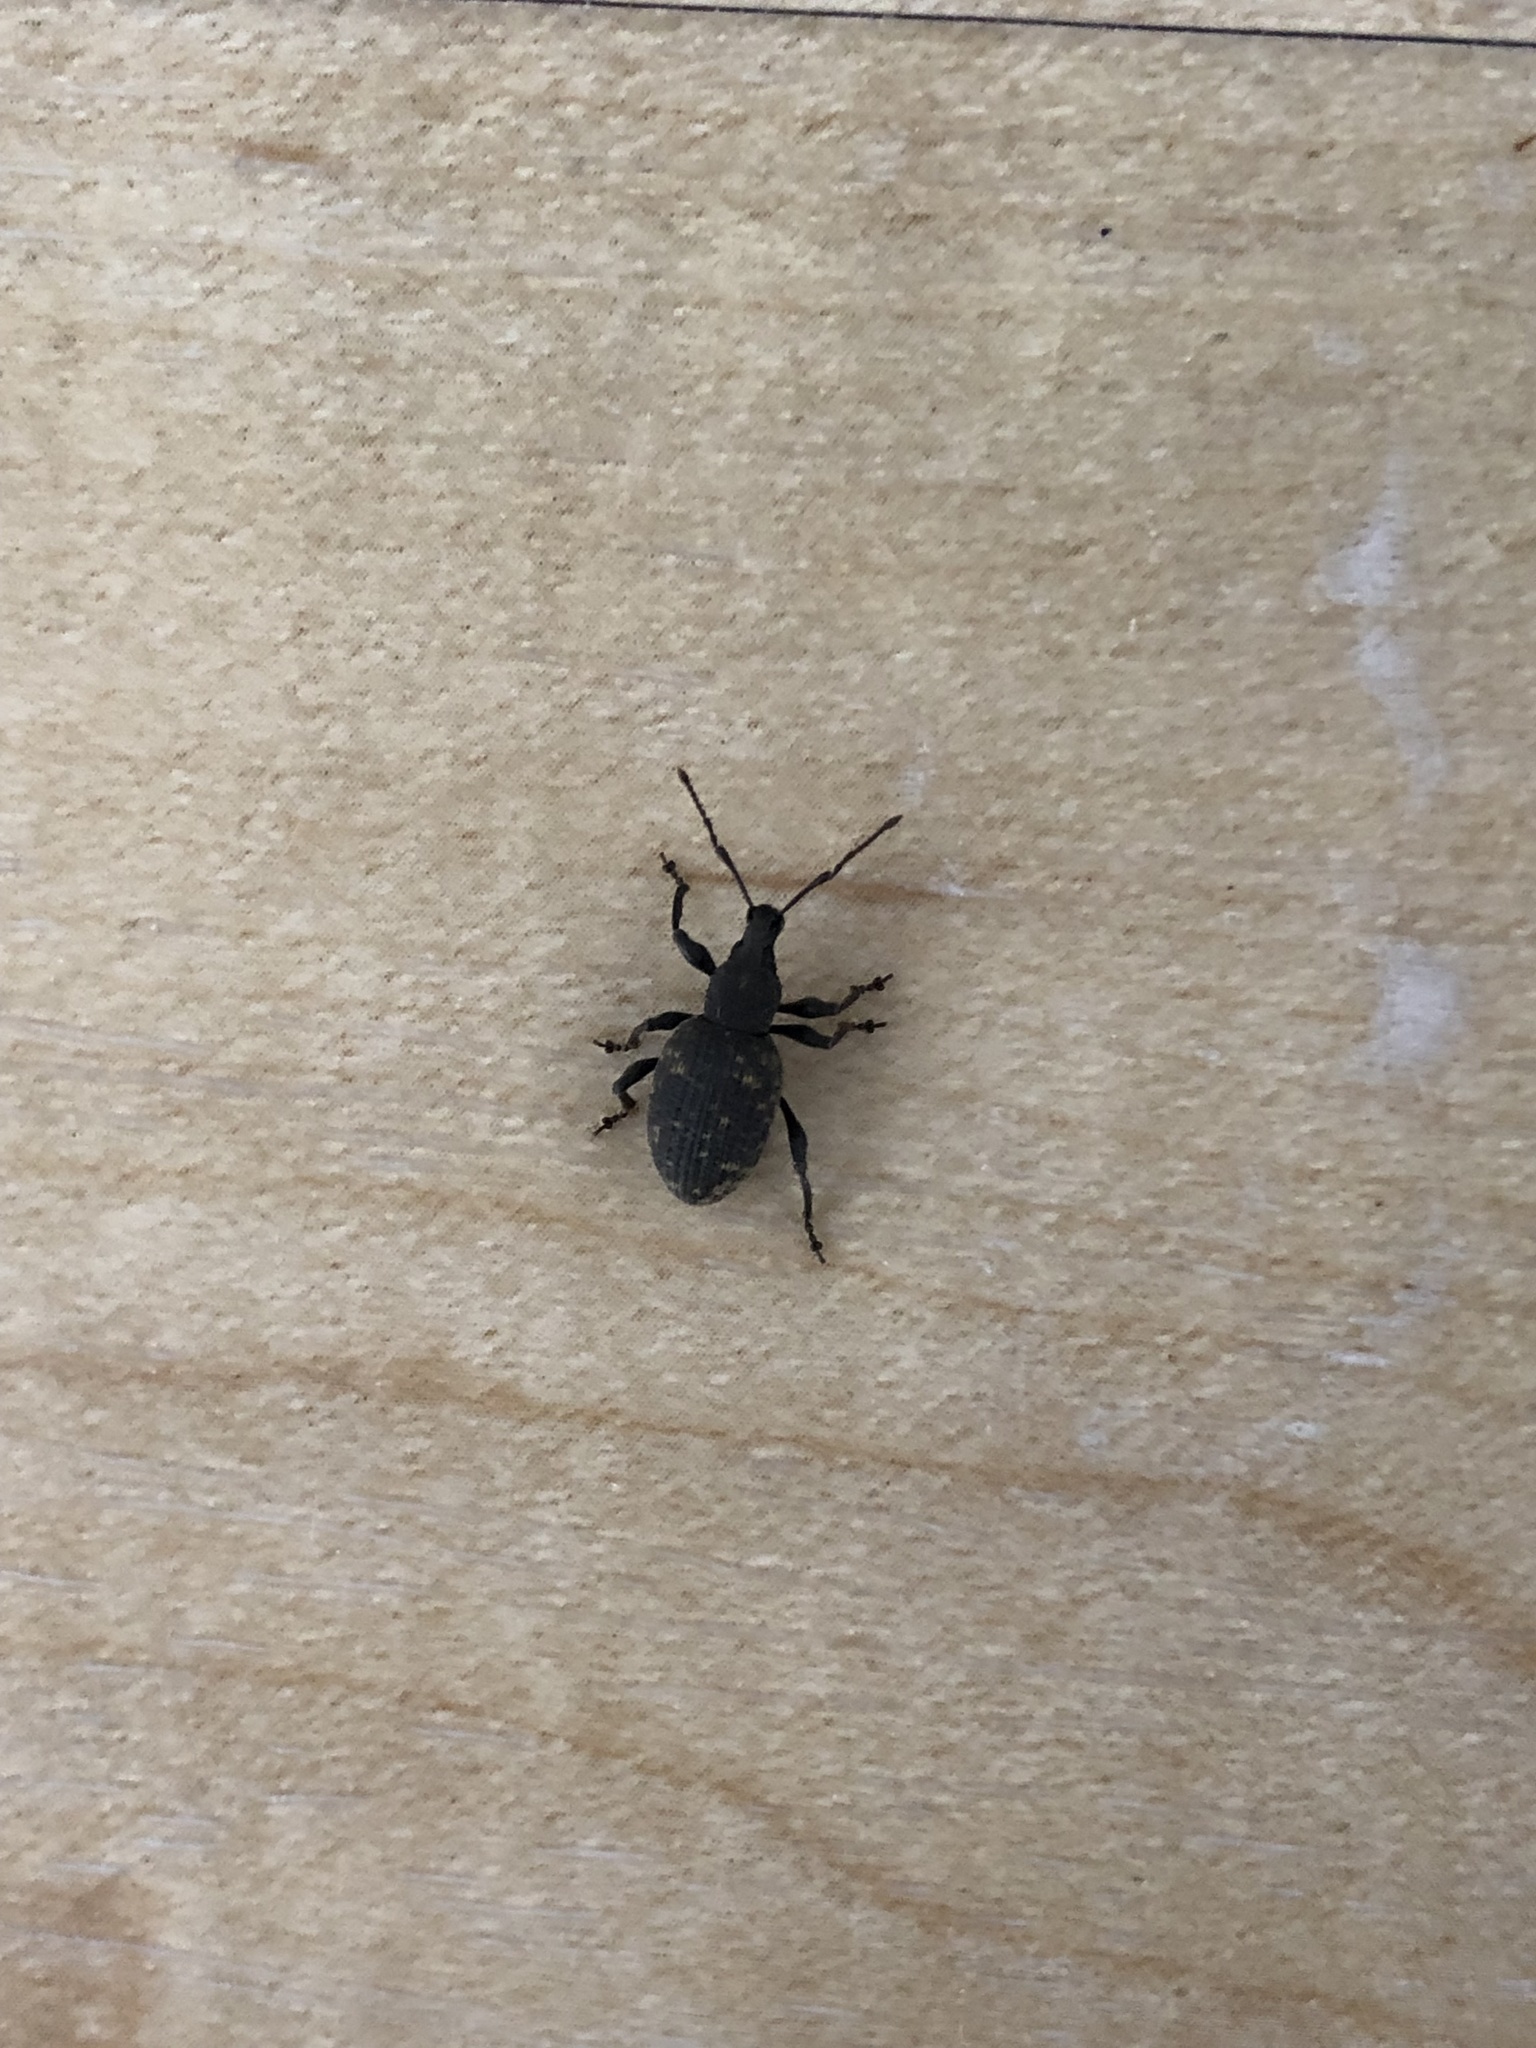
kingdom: Animalia
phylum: Arthropoda
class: Insecta
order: Coleoptera
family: Curculionidae
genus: Otiorhynchus
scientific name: Otiorhynchus sulcatus
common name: Black vine weevil
